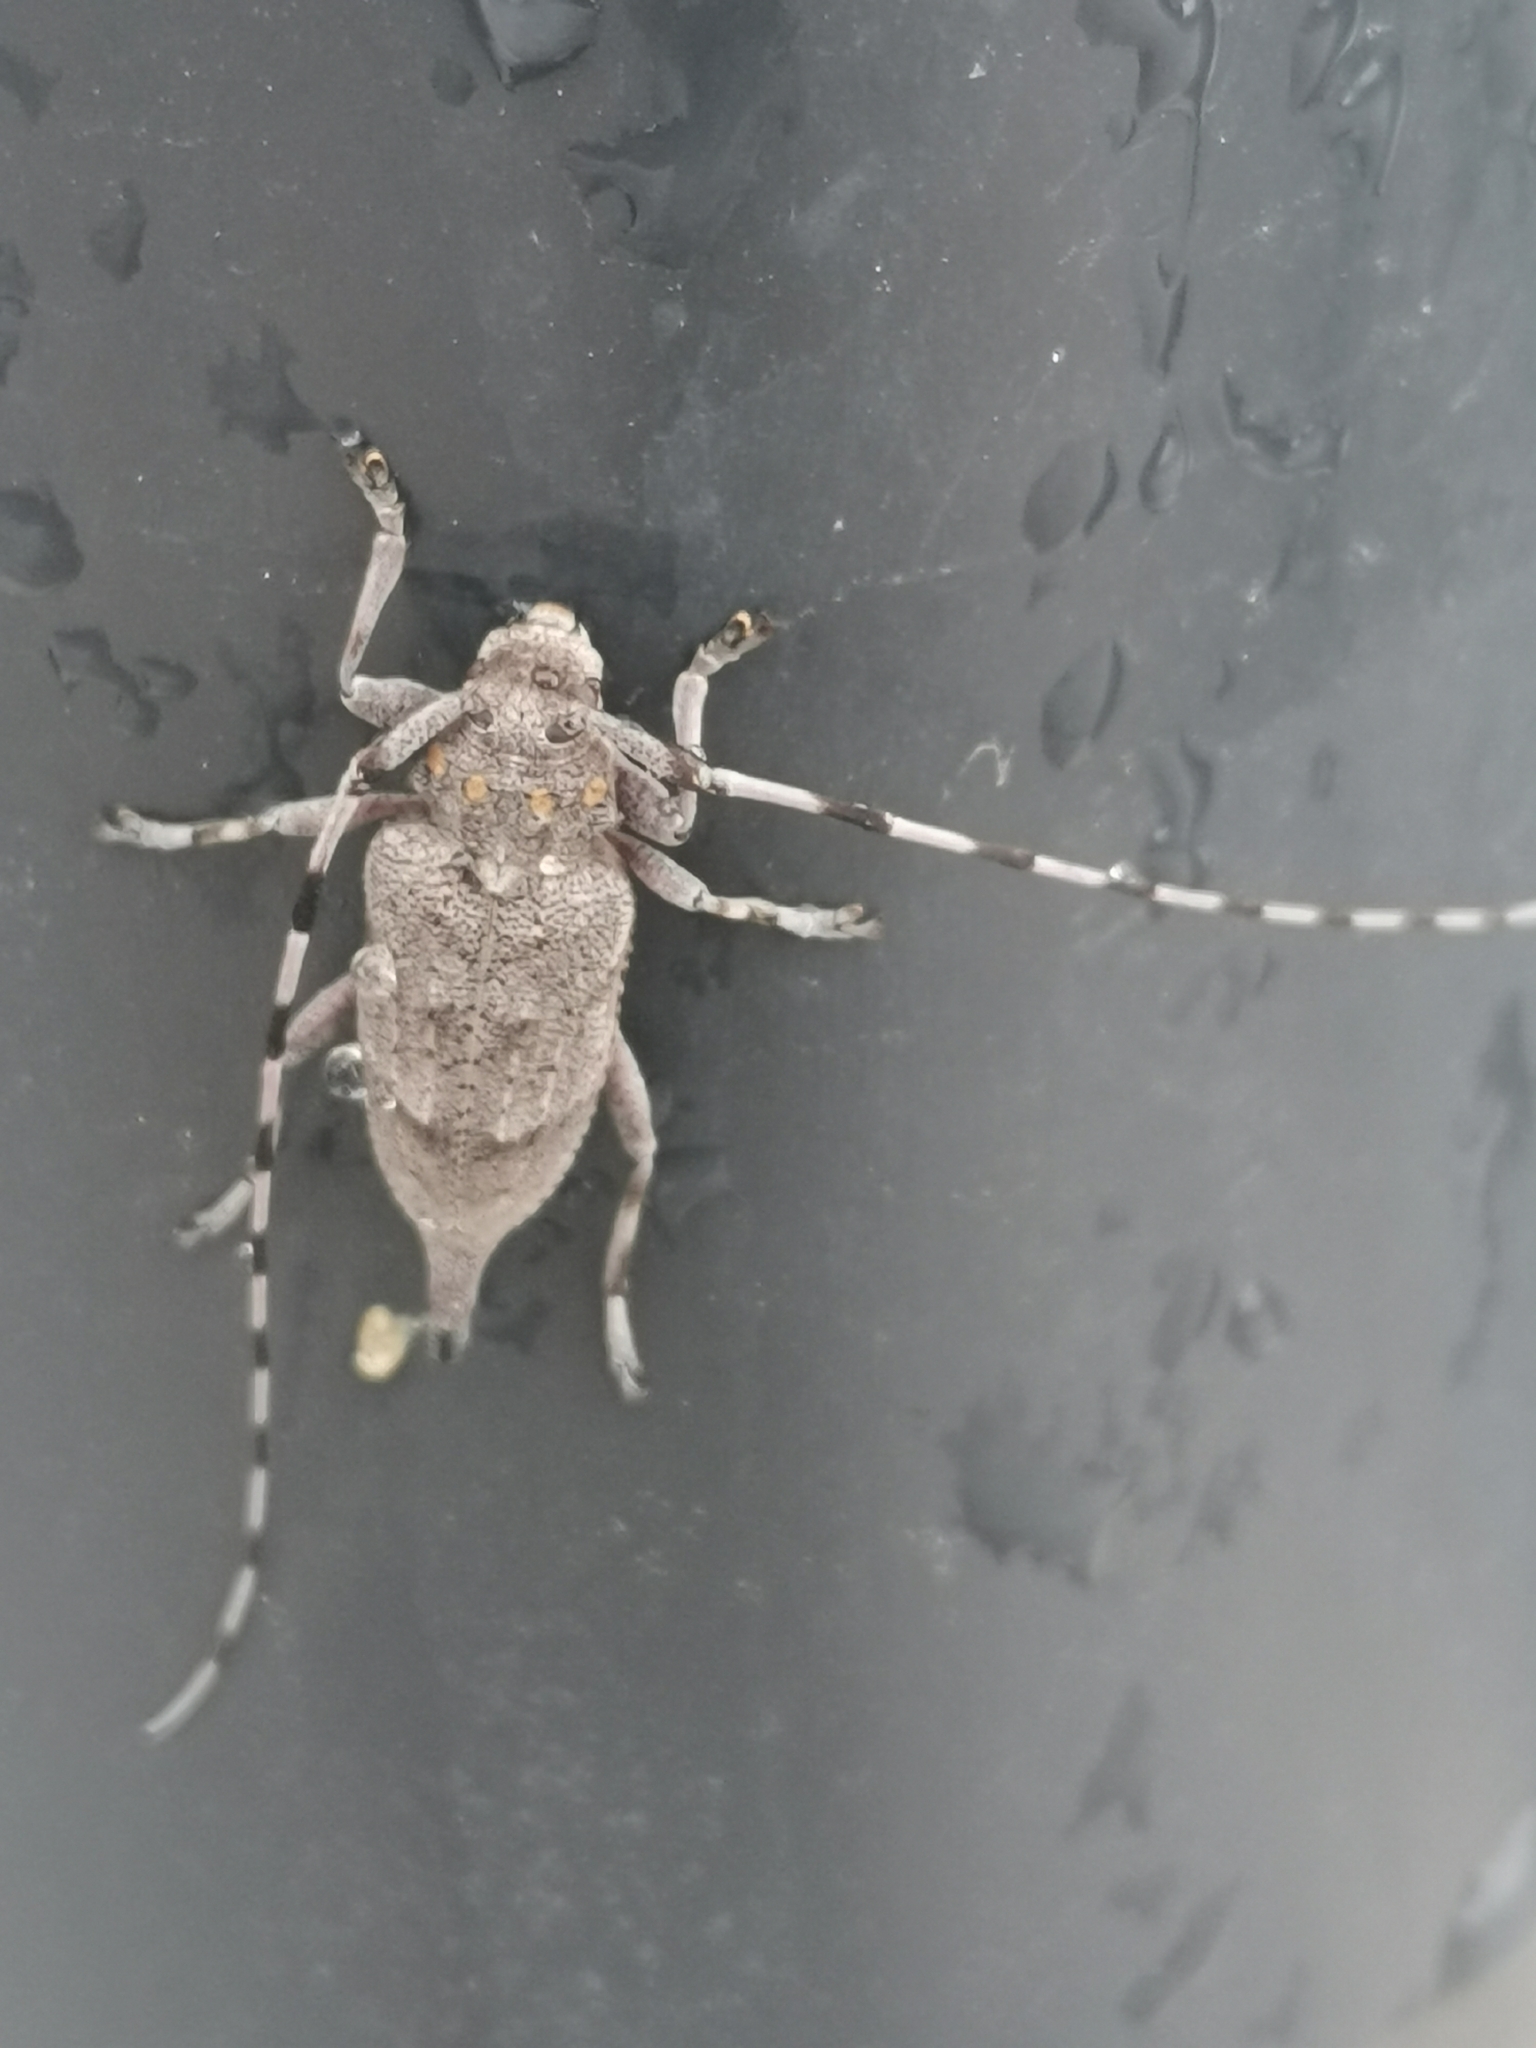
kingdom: Animalia
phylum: Arthropoda
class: Insecta
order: Coleoptera
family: Cerambycidae
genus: Acanthocinus
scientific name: Acanthocinus aedilis
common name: Timberman beetle
